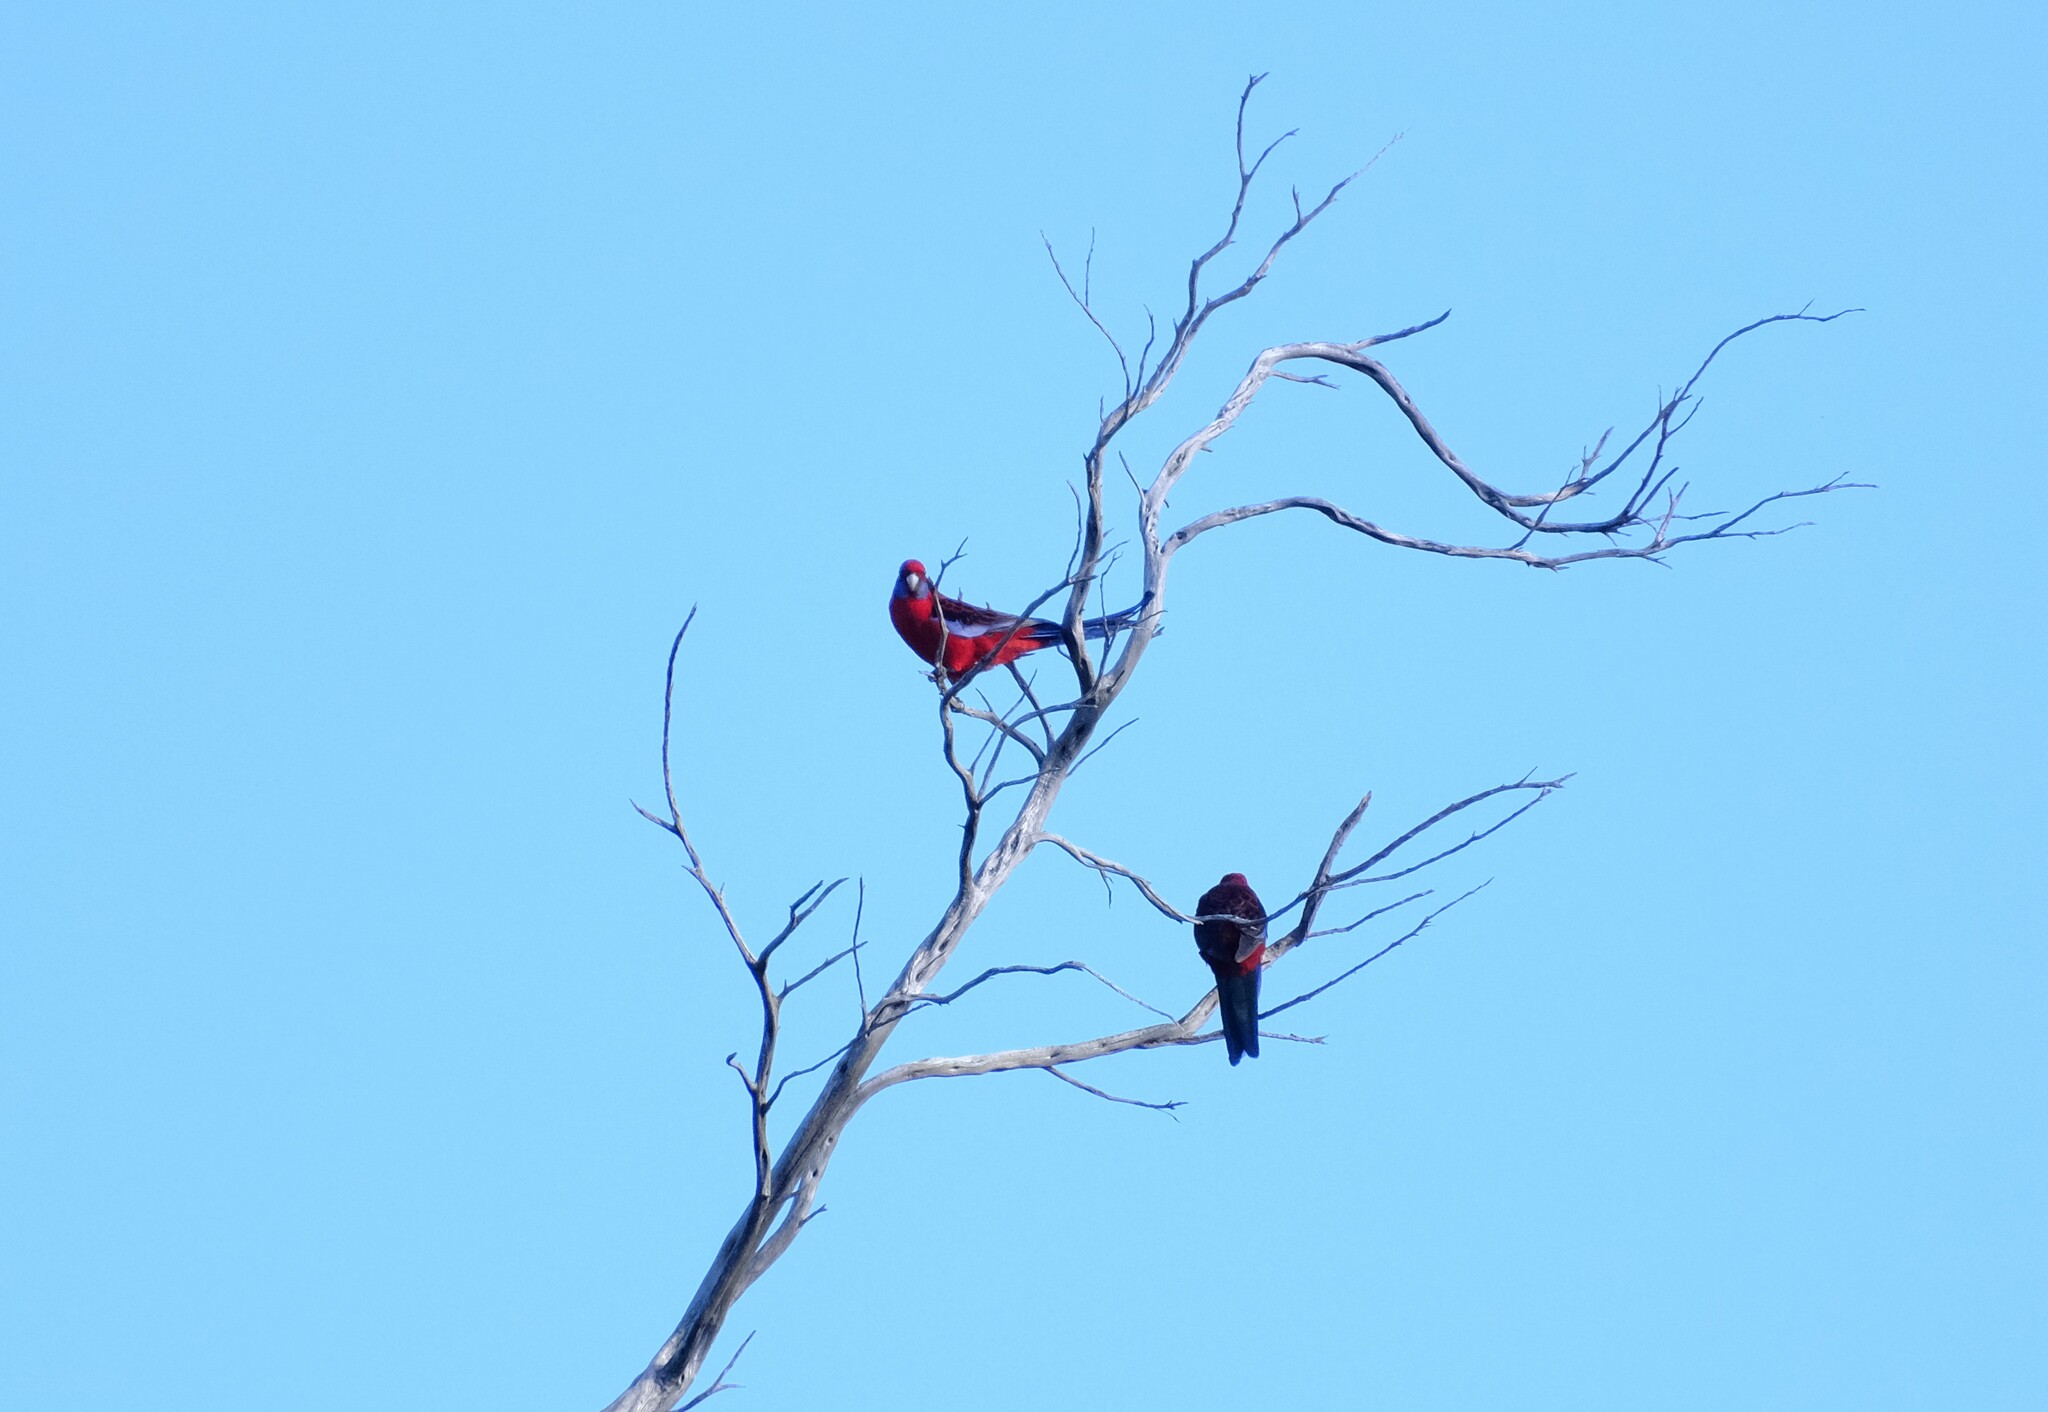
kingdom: Animalia
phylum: Chordata
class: Aves
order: Psittaciformes
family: Psittacidae
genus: Platycercus
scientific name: Platycercus elegans
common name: Crimson rosella
